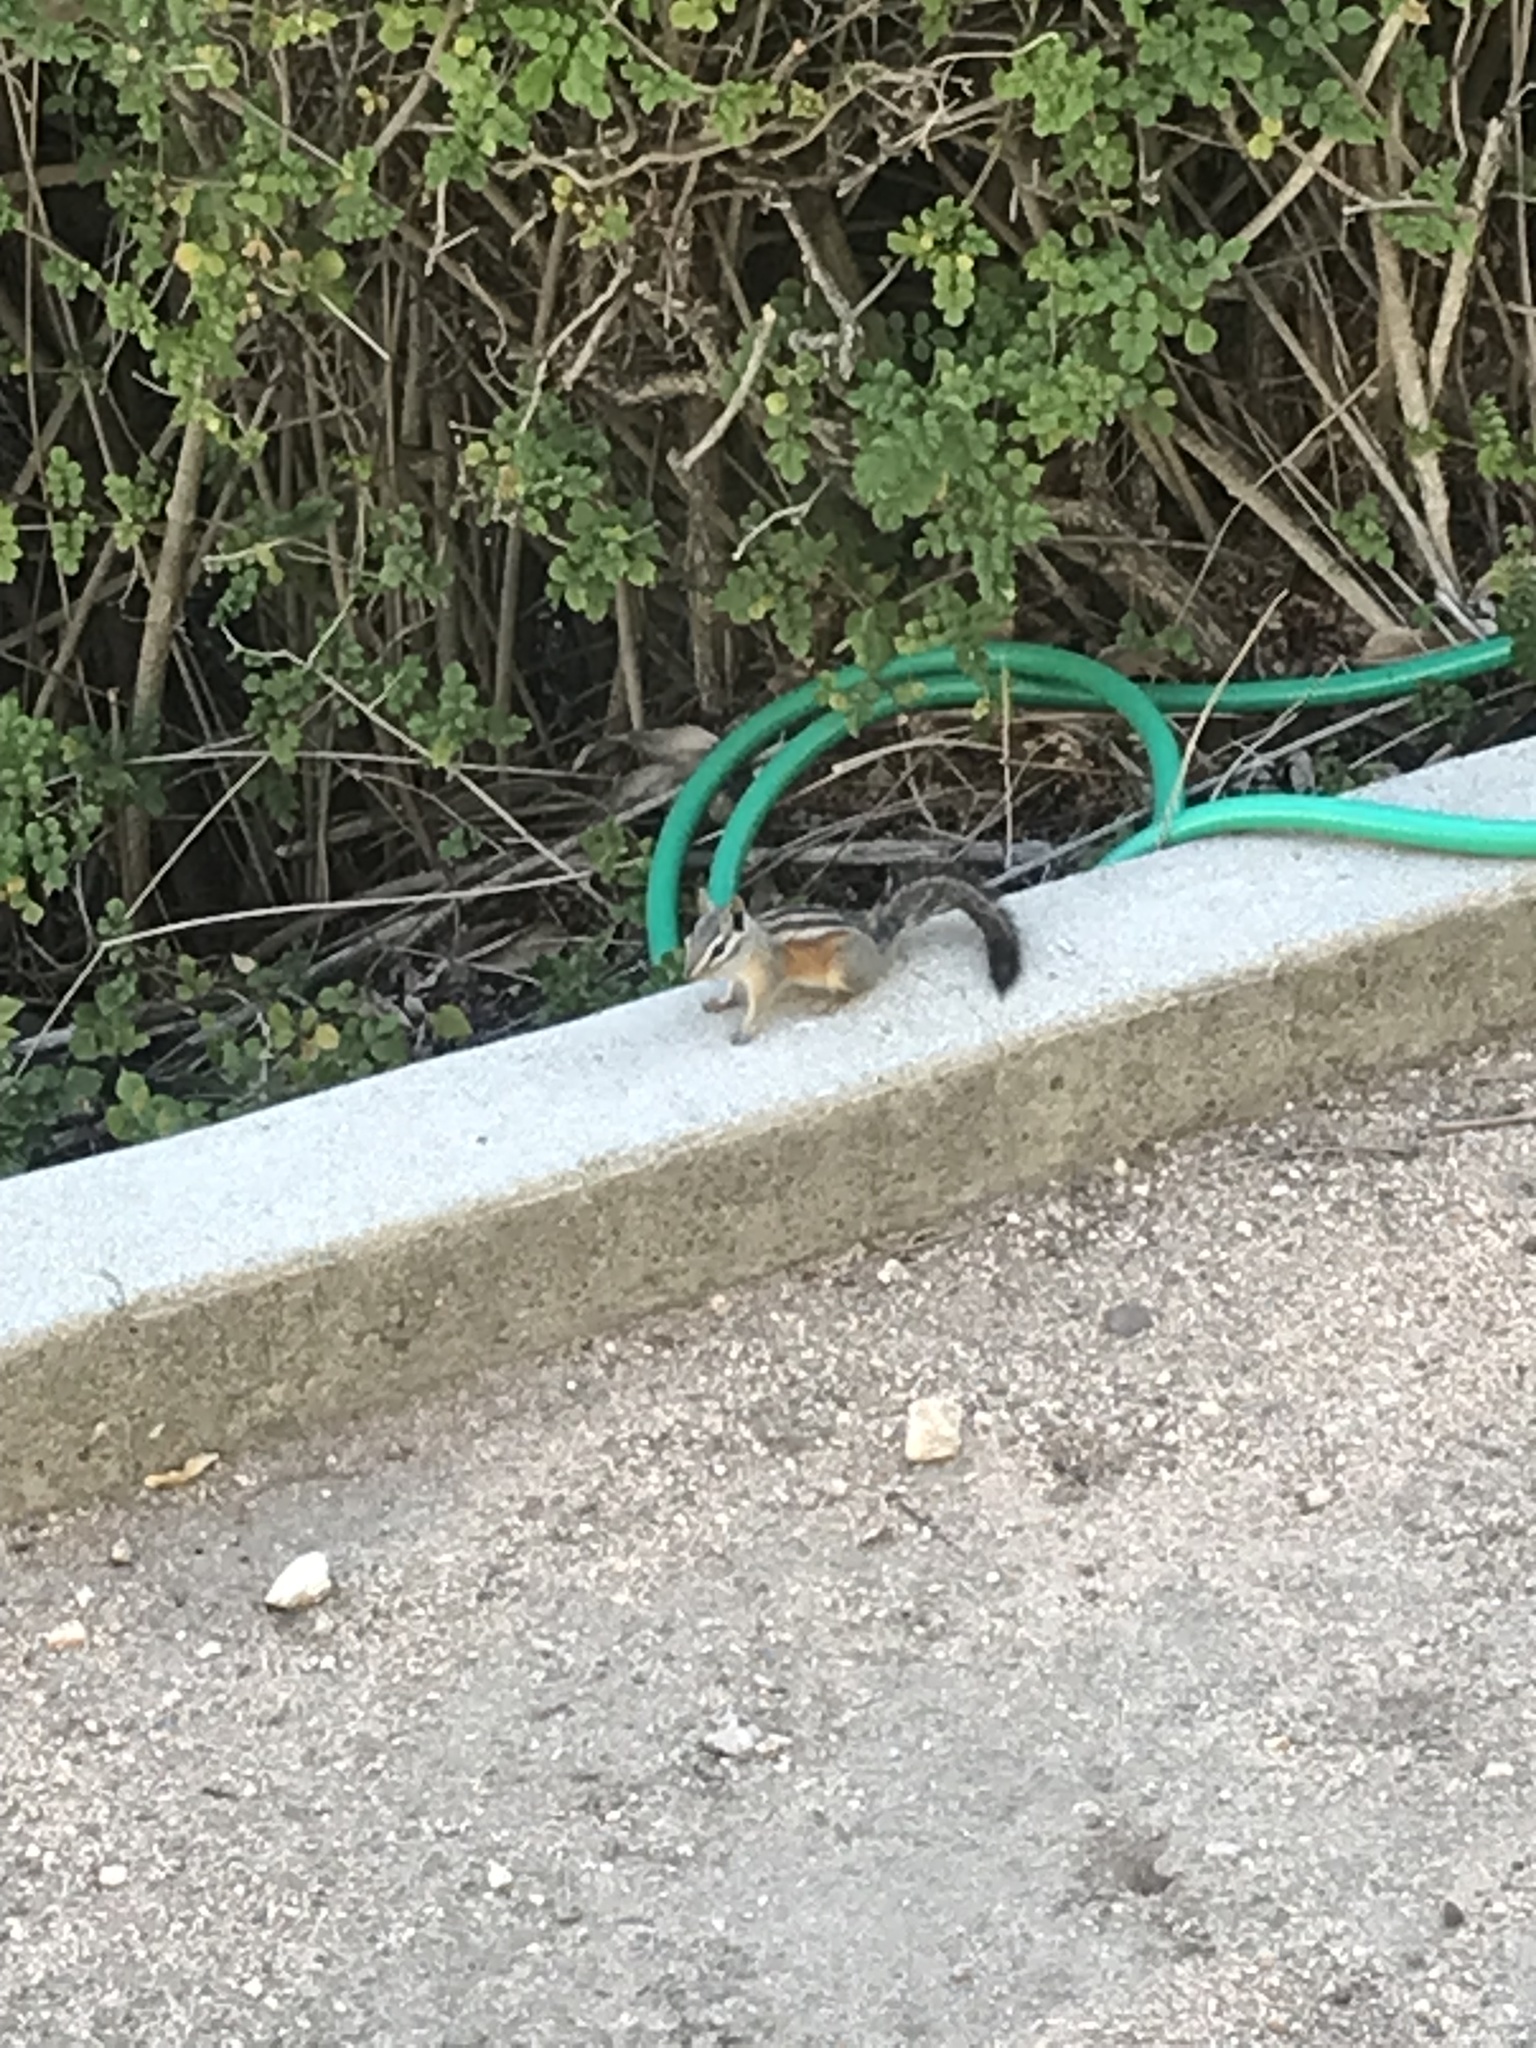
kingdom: Animalia
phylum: Chordata
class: Mammalia
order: Rodentia
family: Sciuridae
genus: Tamias
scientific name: Tamias merriami
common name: Merriam's chipmunk
